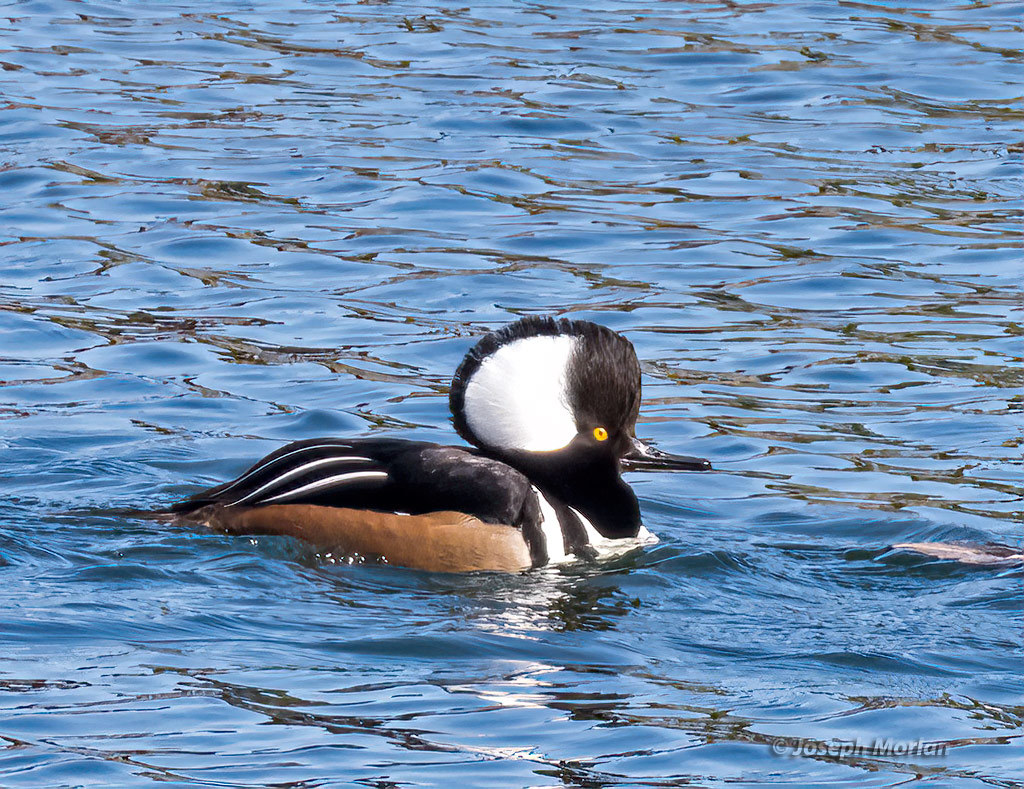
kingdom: Animalia
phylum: Chordata
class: Aves
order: Anseriformes
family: Anatidae
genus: Lophodytes
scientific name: Lophodytes cucullatus
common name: Hooded merganser
